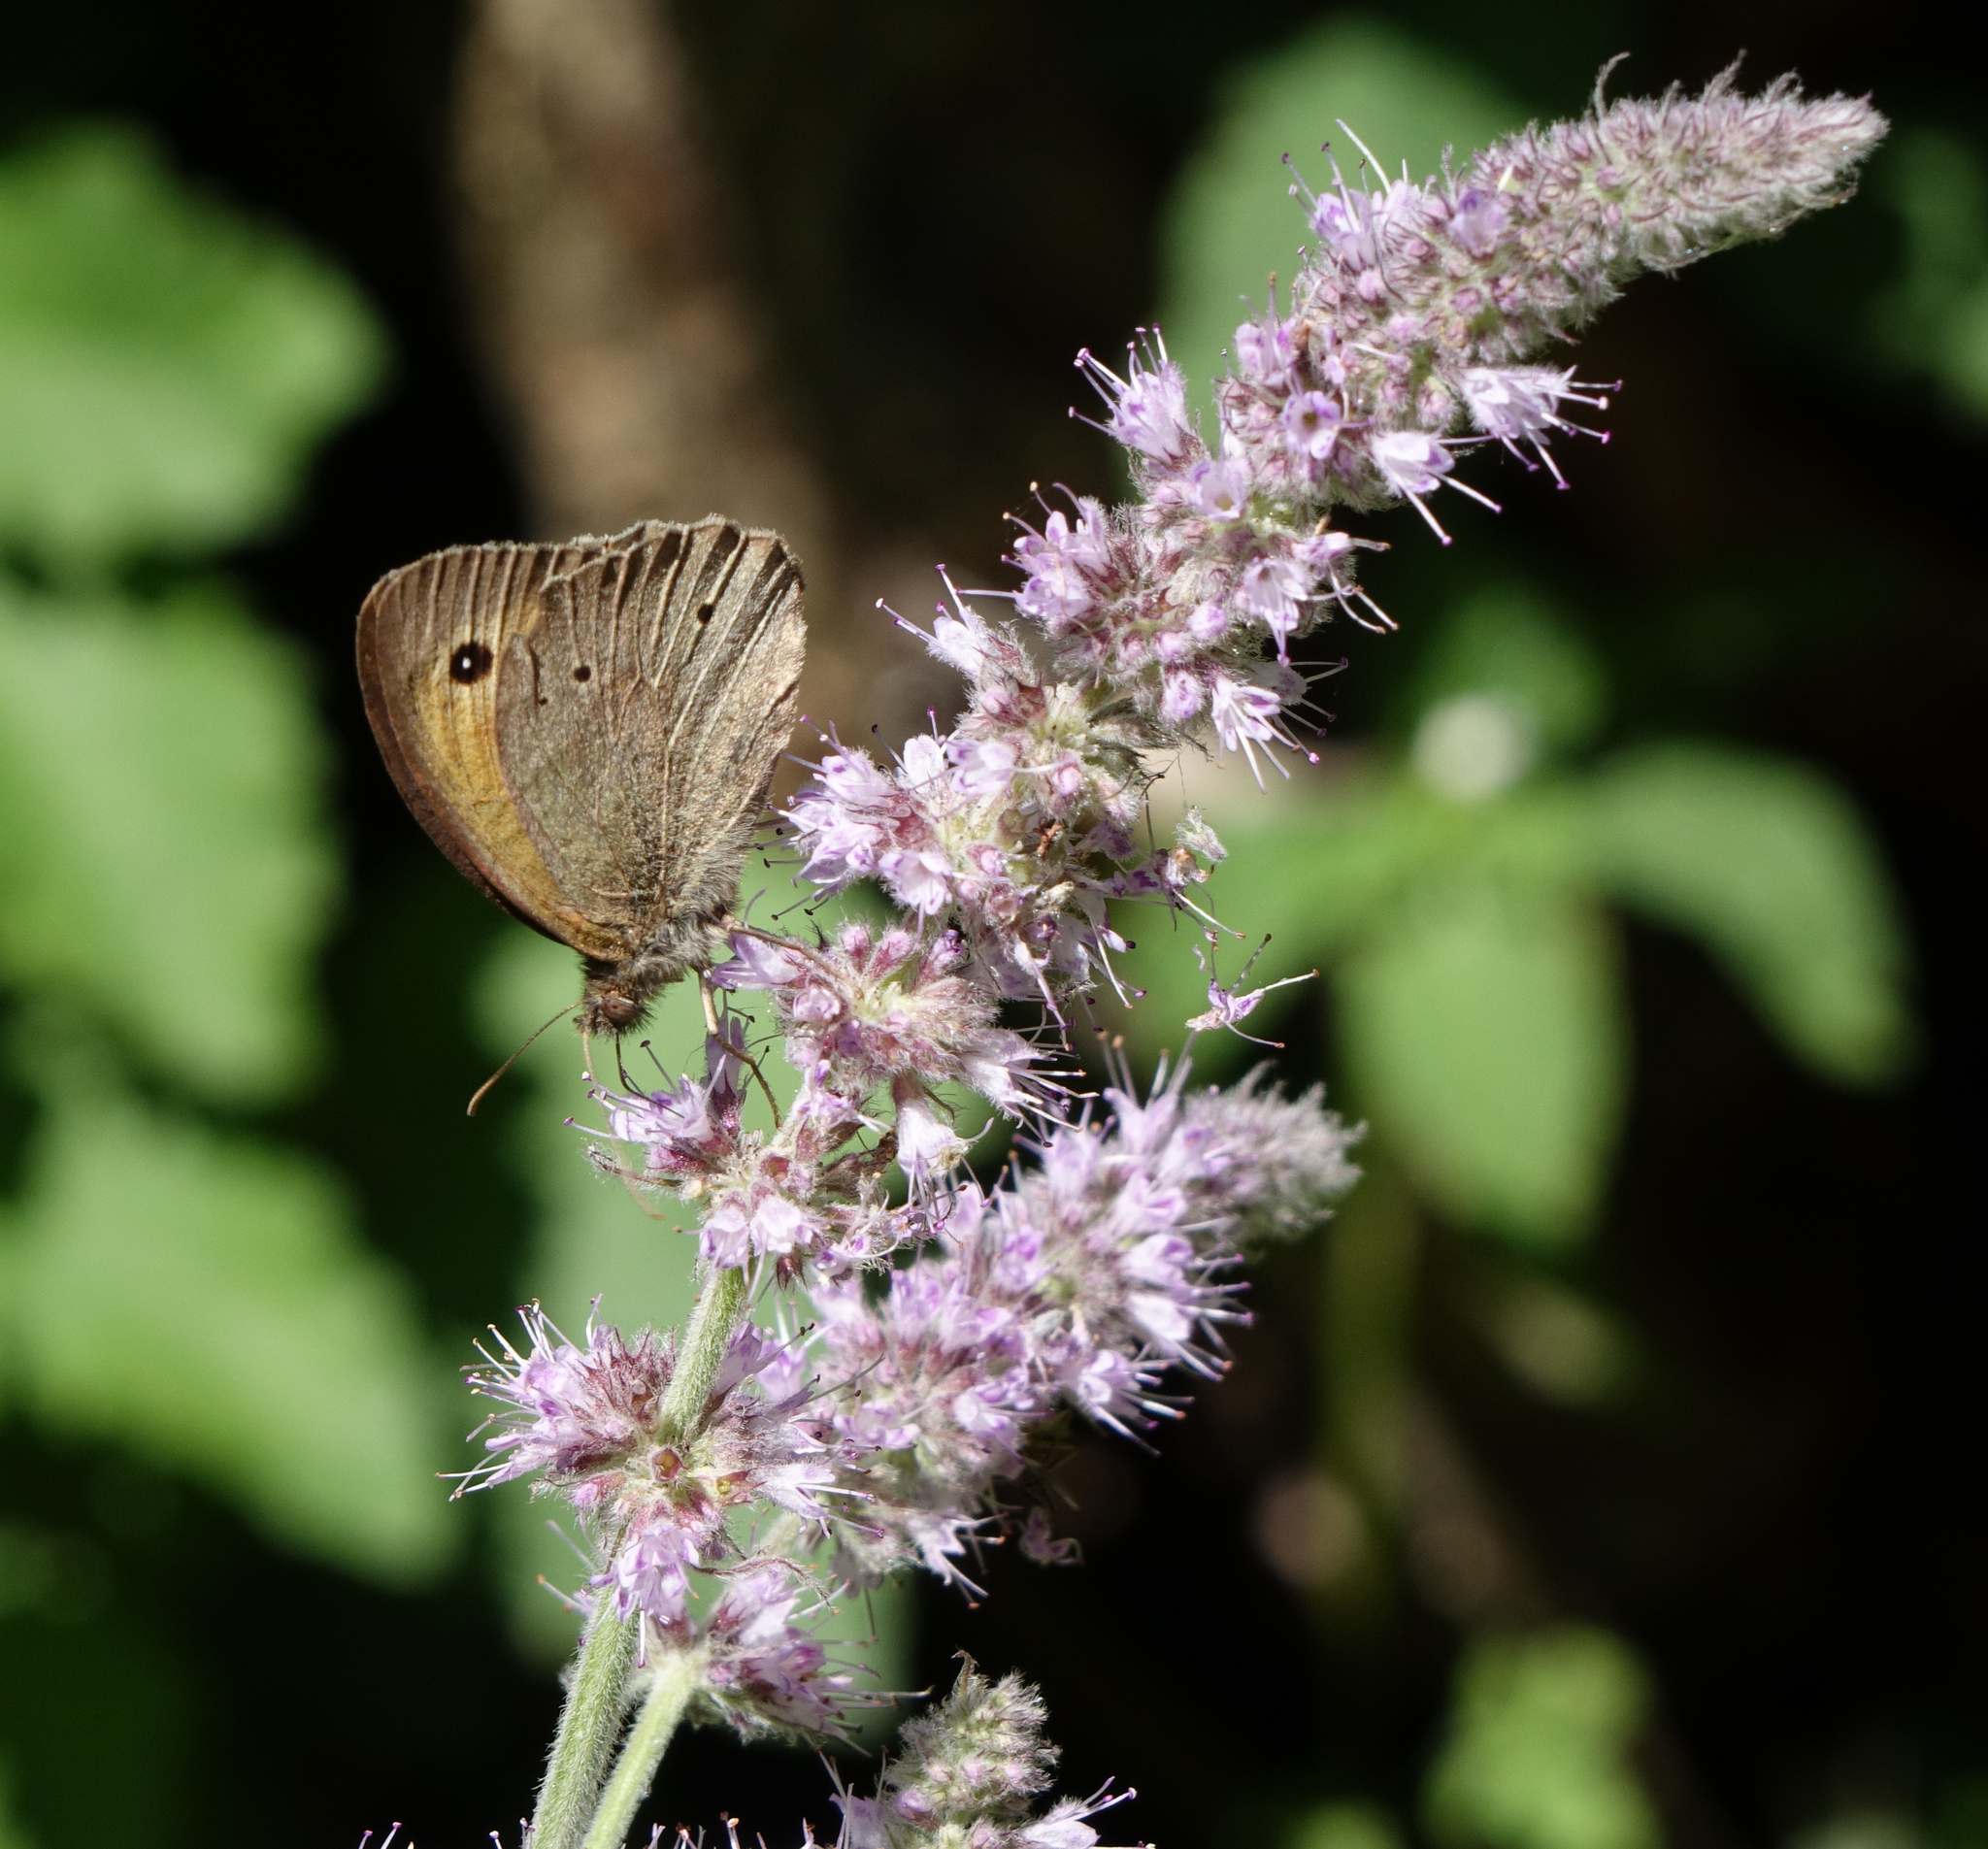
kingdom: Animalia
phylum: Arthropoda
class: Insecta
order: Lepidoptera
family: Nymphalidae
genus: Maniola
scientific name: Maniola jurtina
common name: Meadow brown
